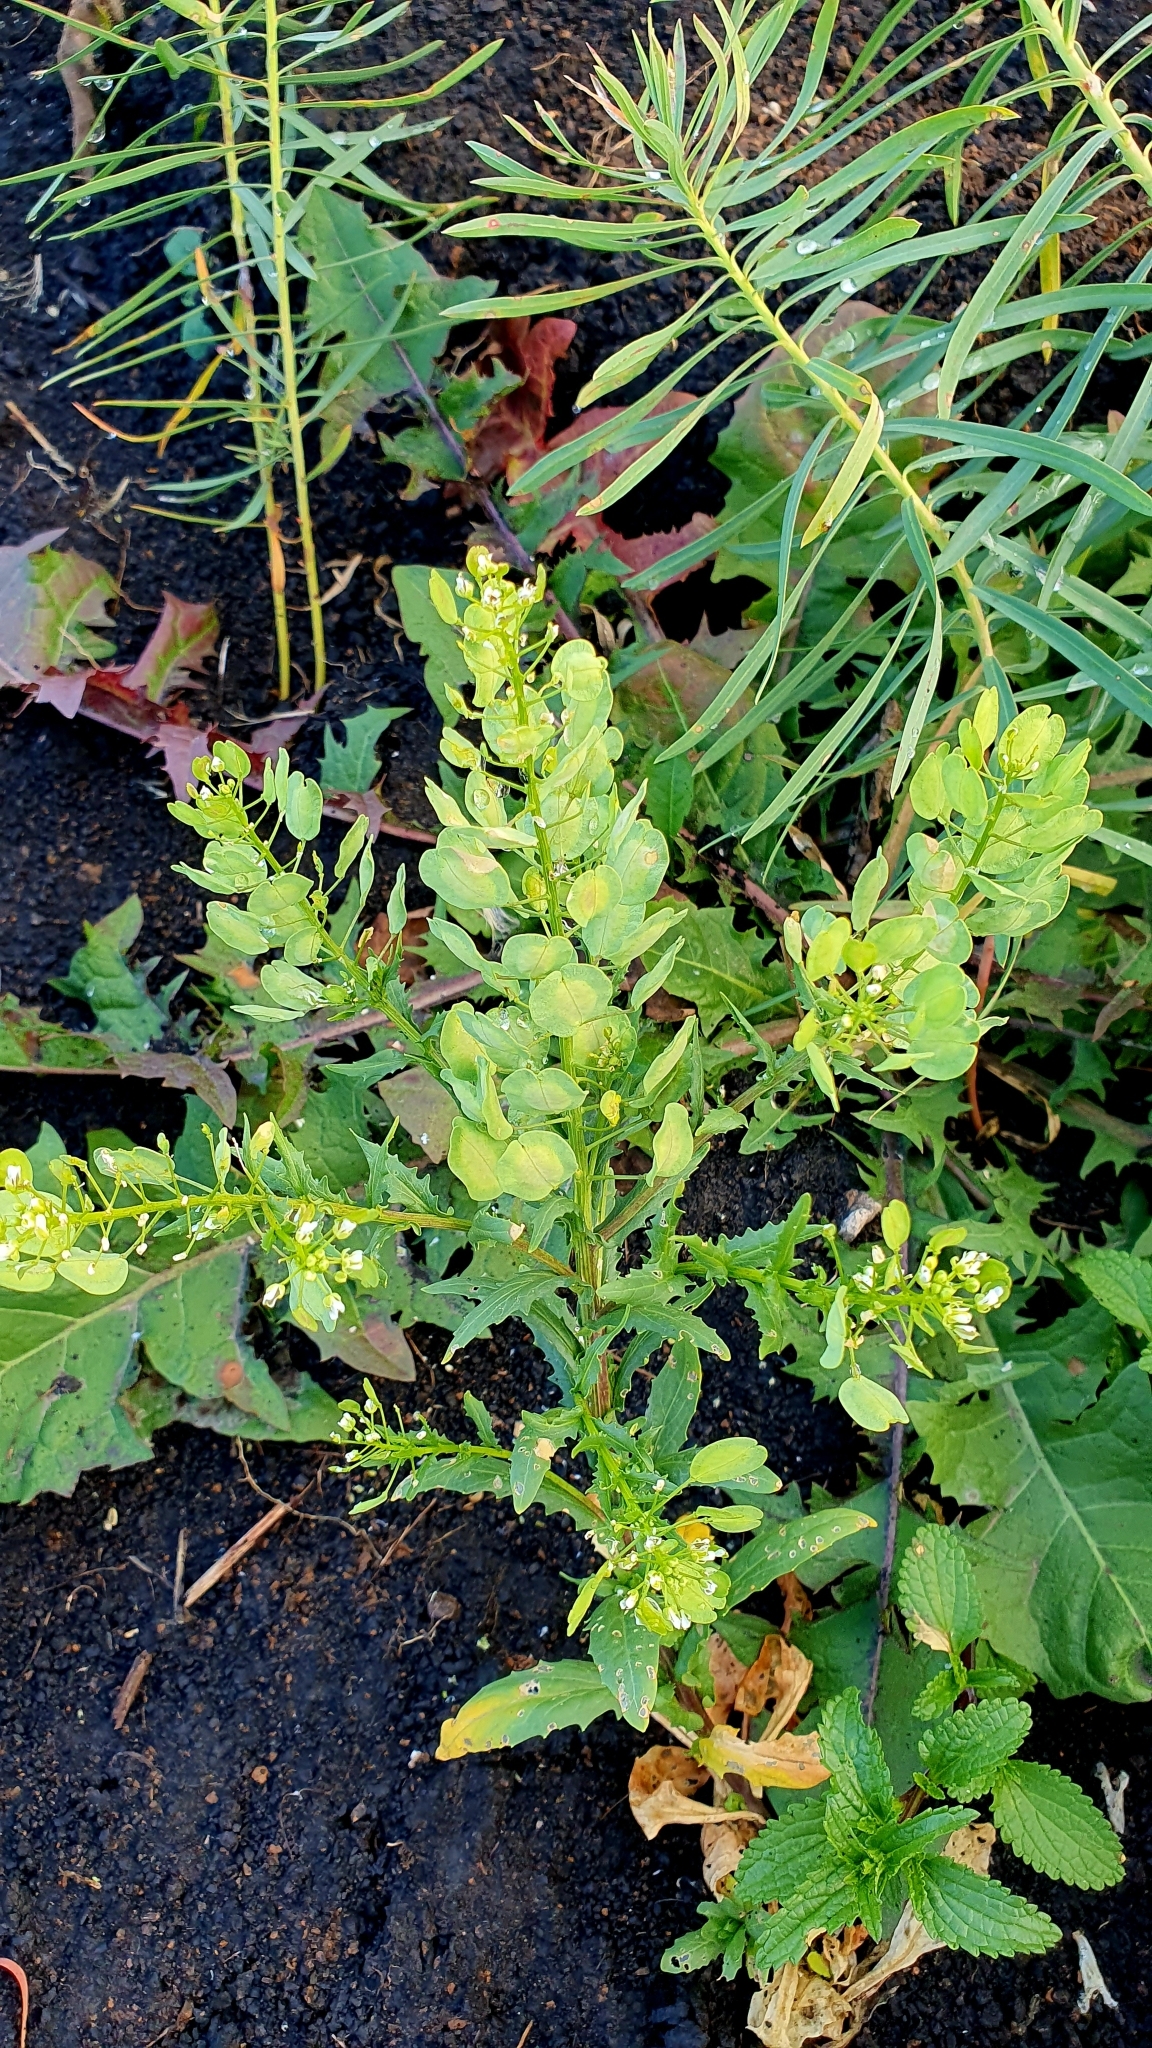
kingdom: Plantae
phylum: Tracheophyta
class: Magnoliopsida
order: Brassicales
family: Brassicaceae
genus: Thlaspi
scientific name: Thlaspi arvense
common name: Field pennycress
